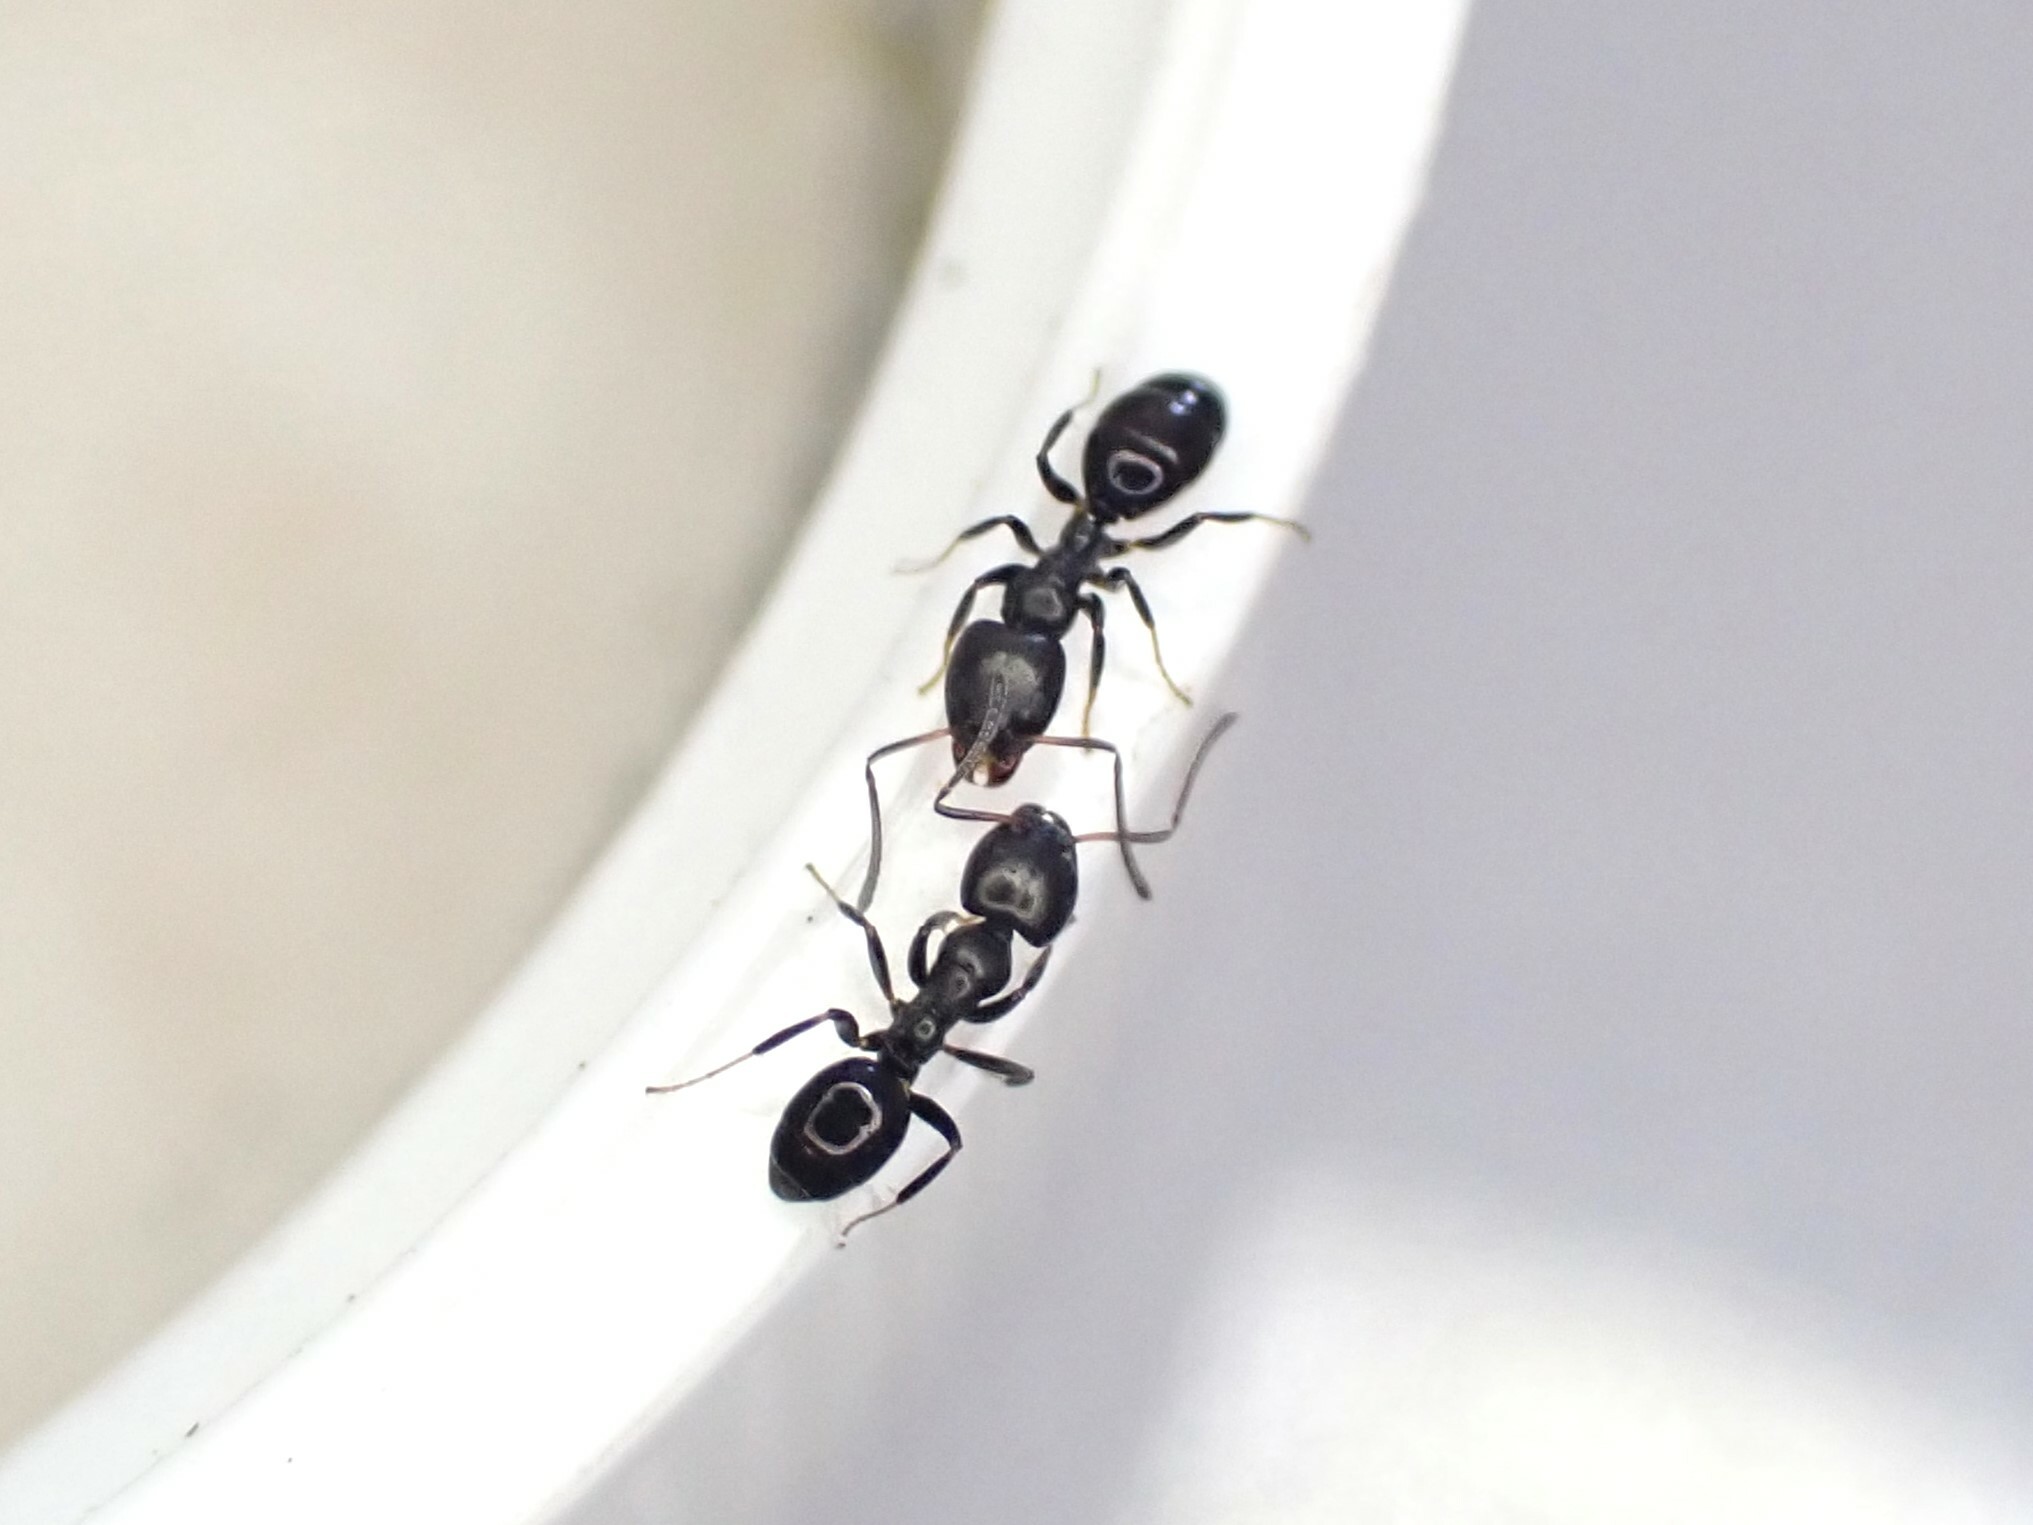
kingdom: Animalia
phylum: Arthropoda
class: Insecta
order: Hymenoptera
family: Formicidae
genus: Ochetellus
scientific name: Ochetellus glaber
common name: Ant
